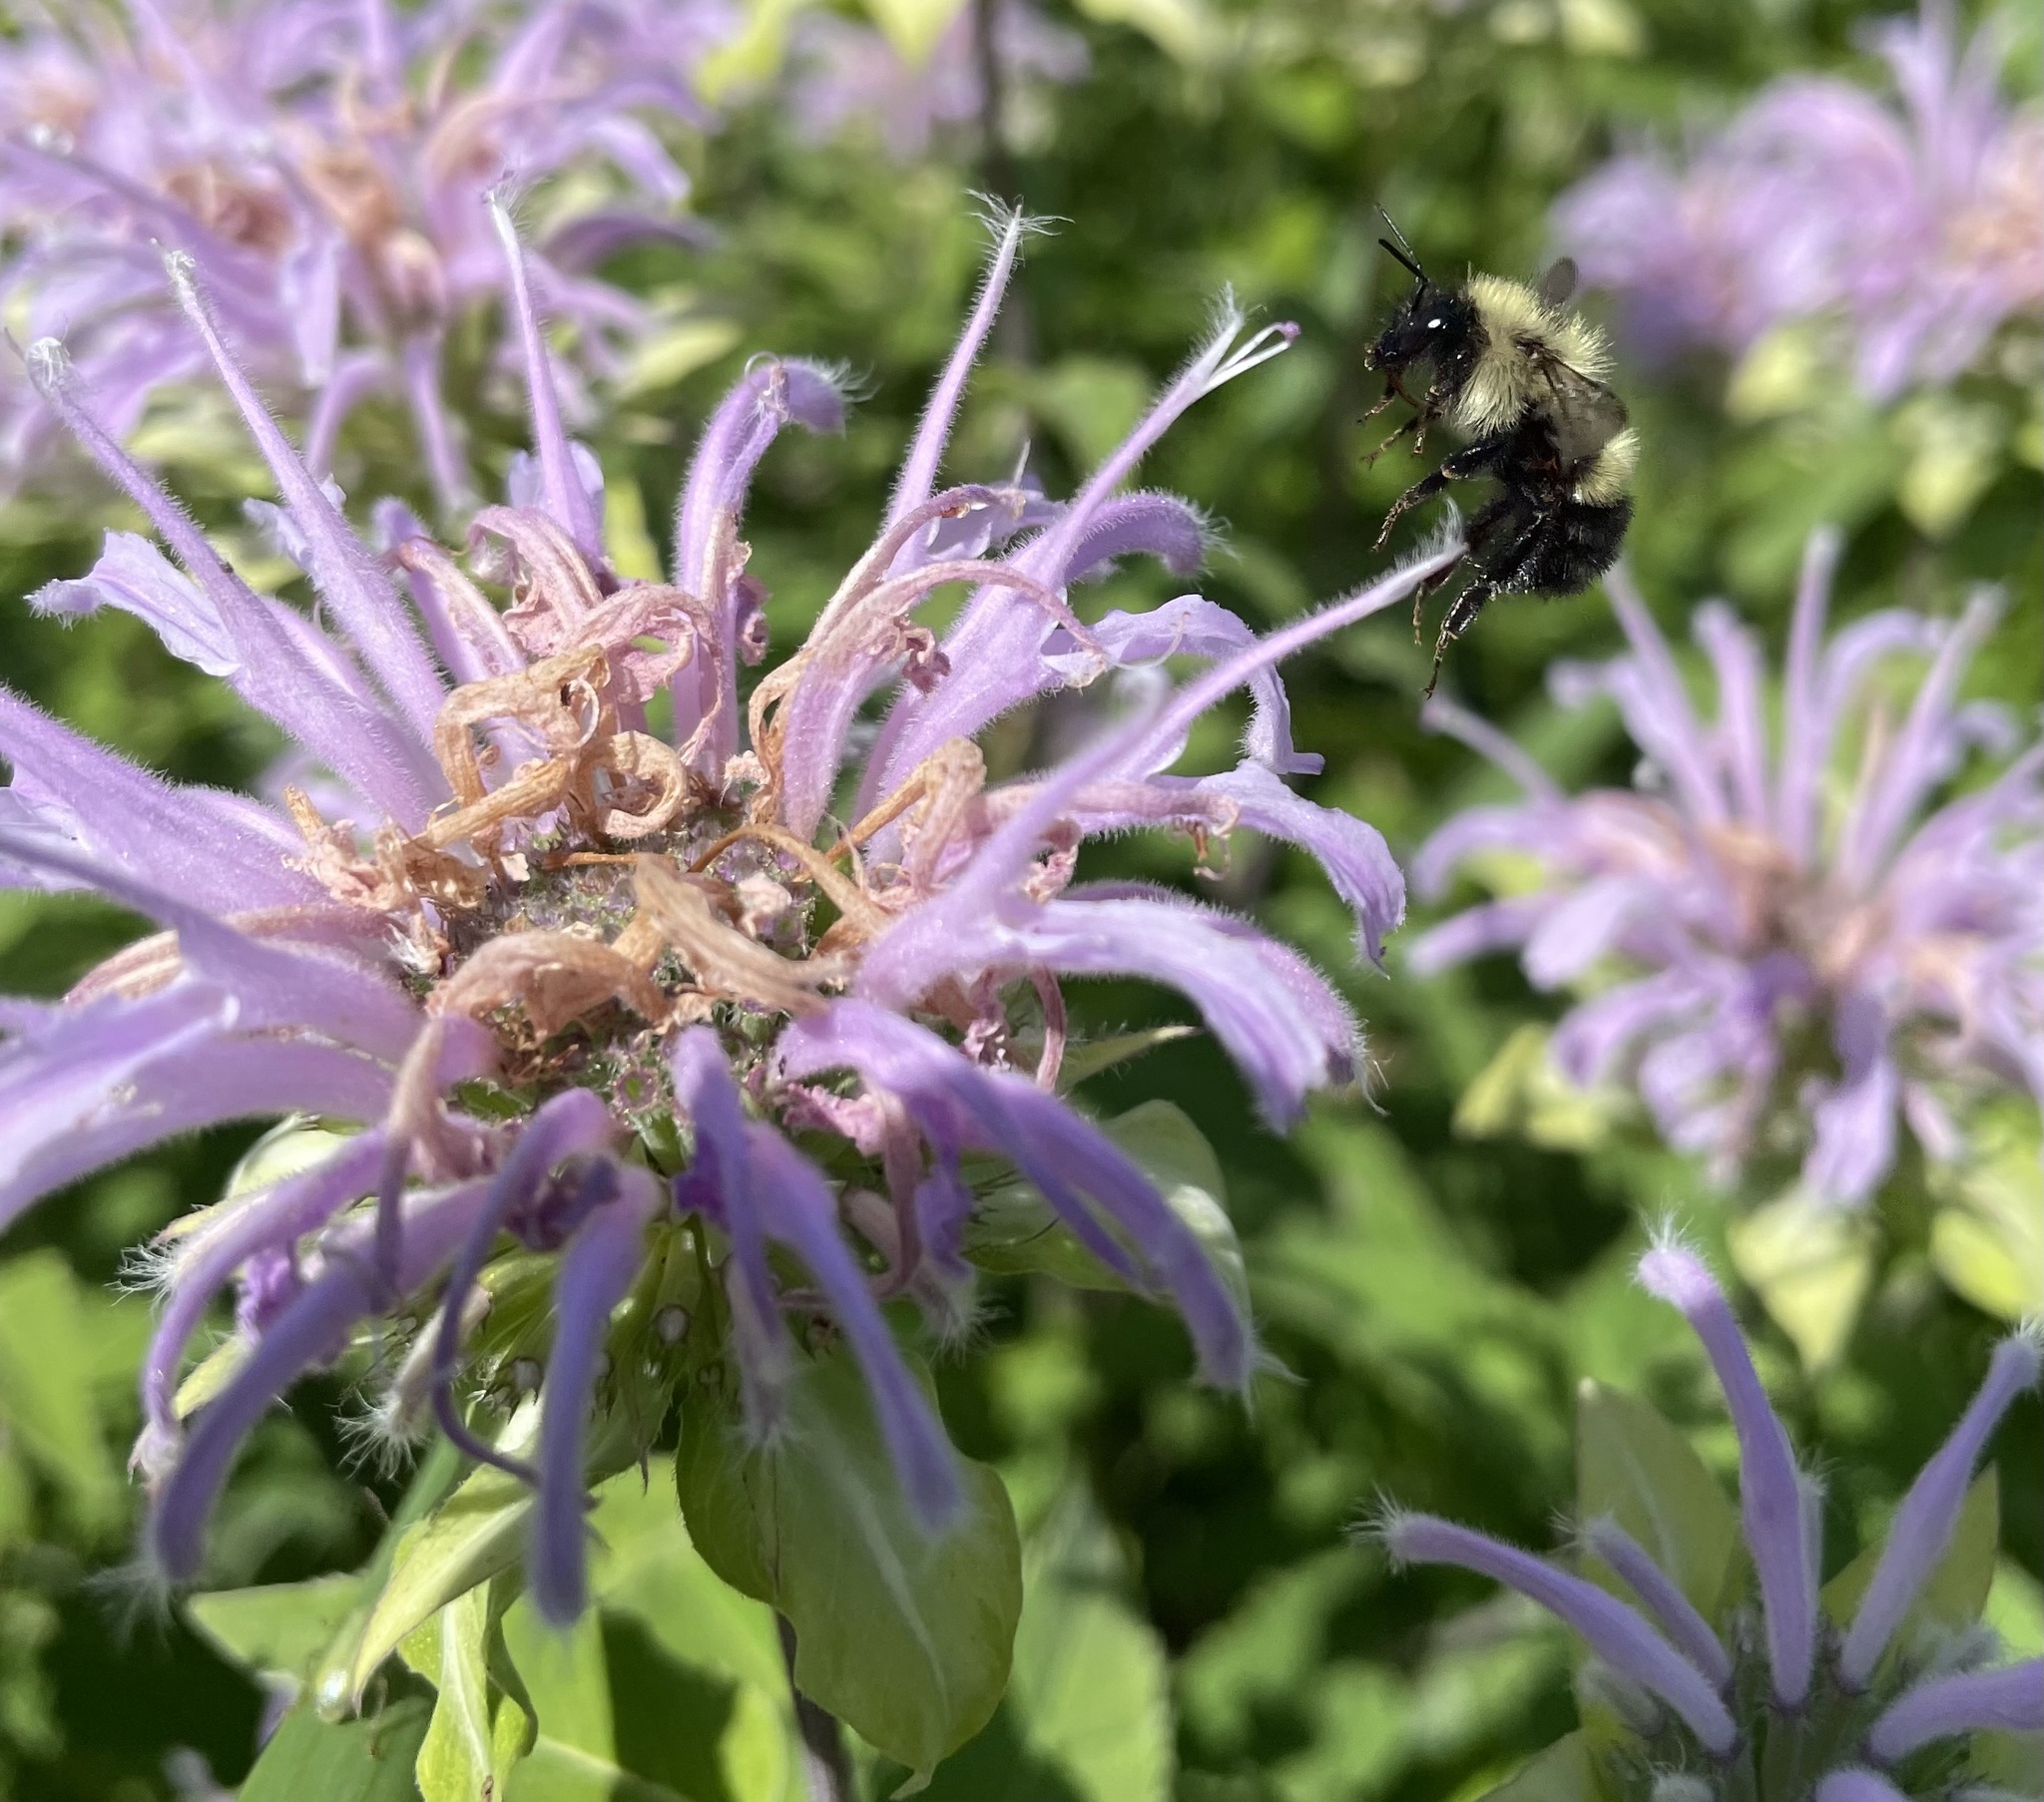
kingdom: Animalia
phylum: Arthropoda
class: Insecta
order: Hymenoptera
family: Apidae
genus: Bombus
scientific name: Bombus vagans
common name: Half-black bumble bee
